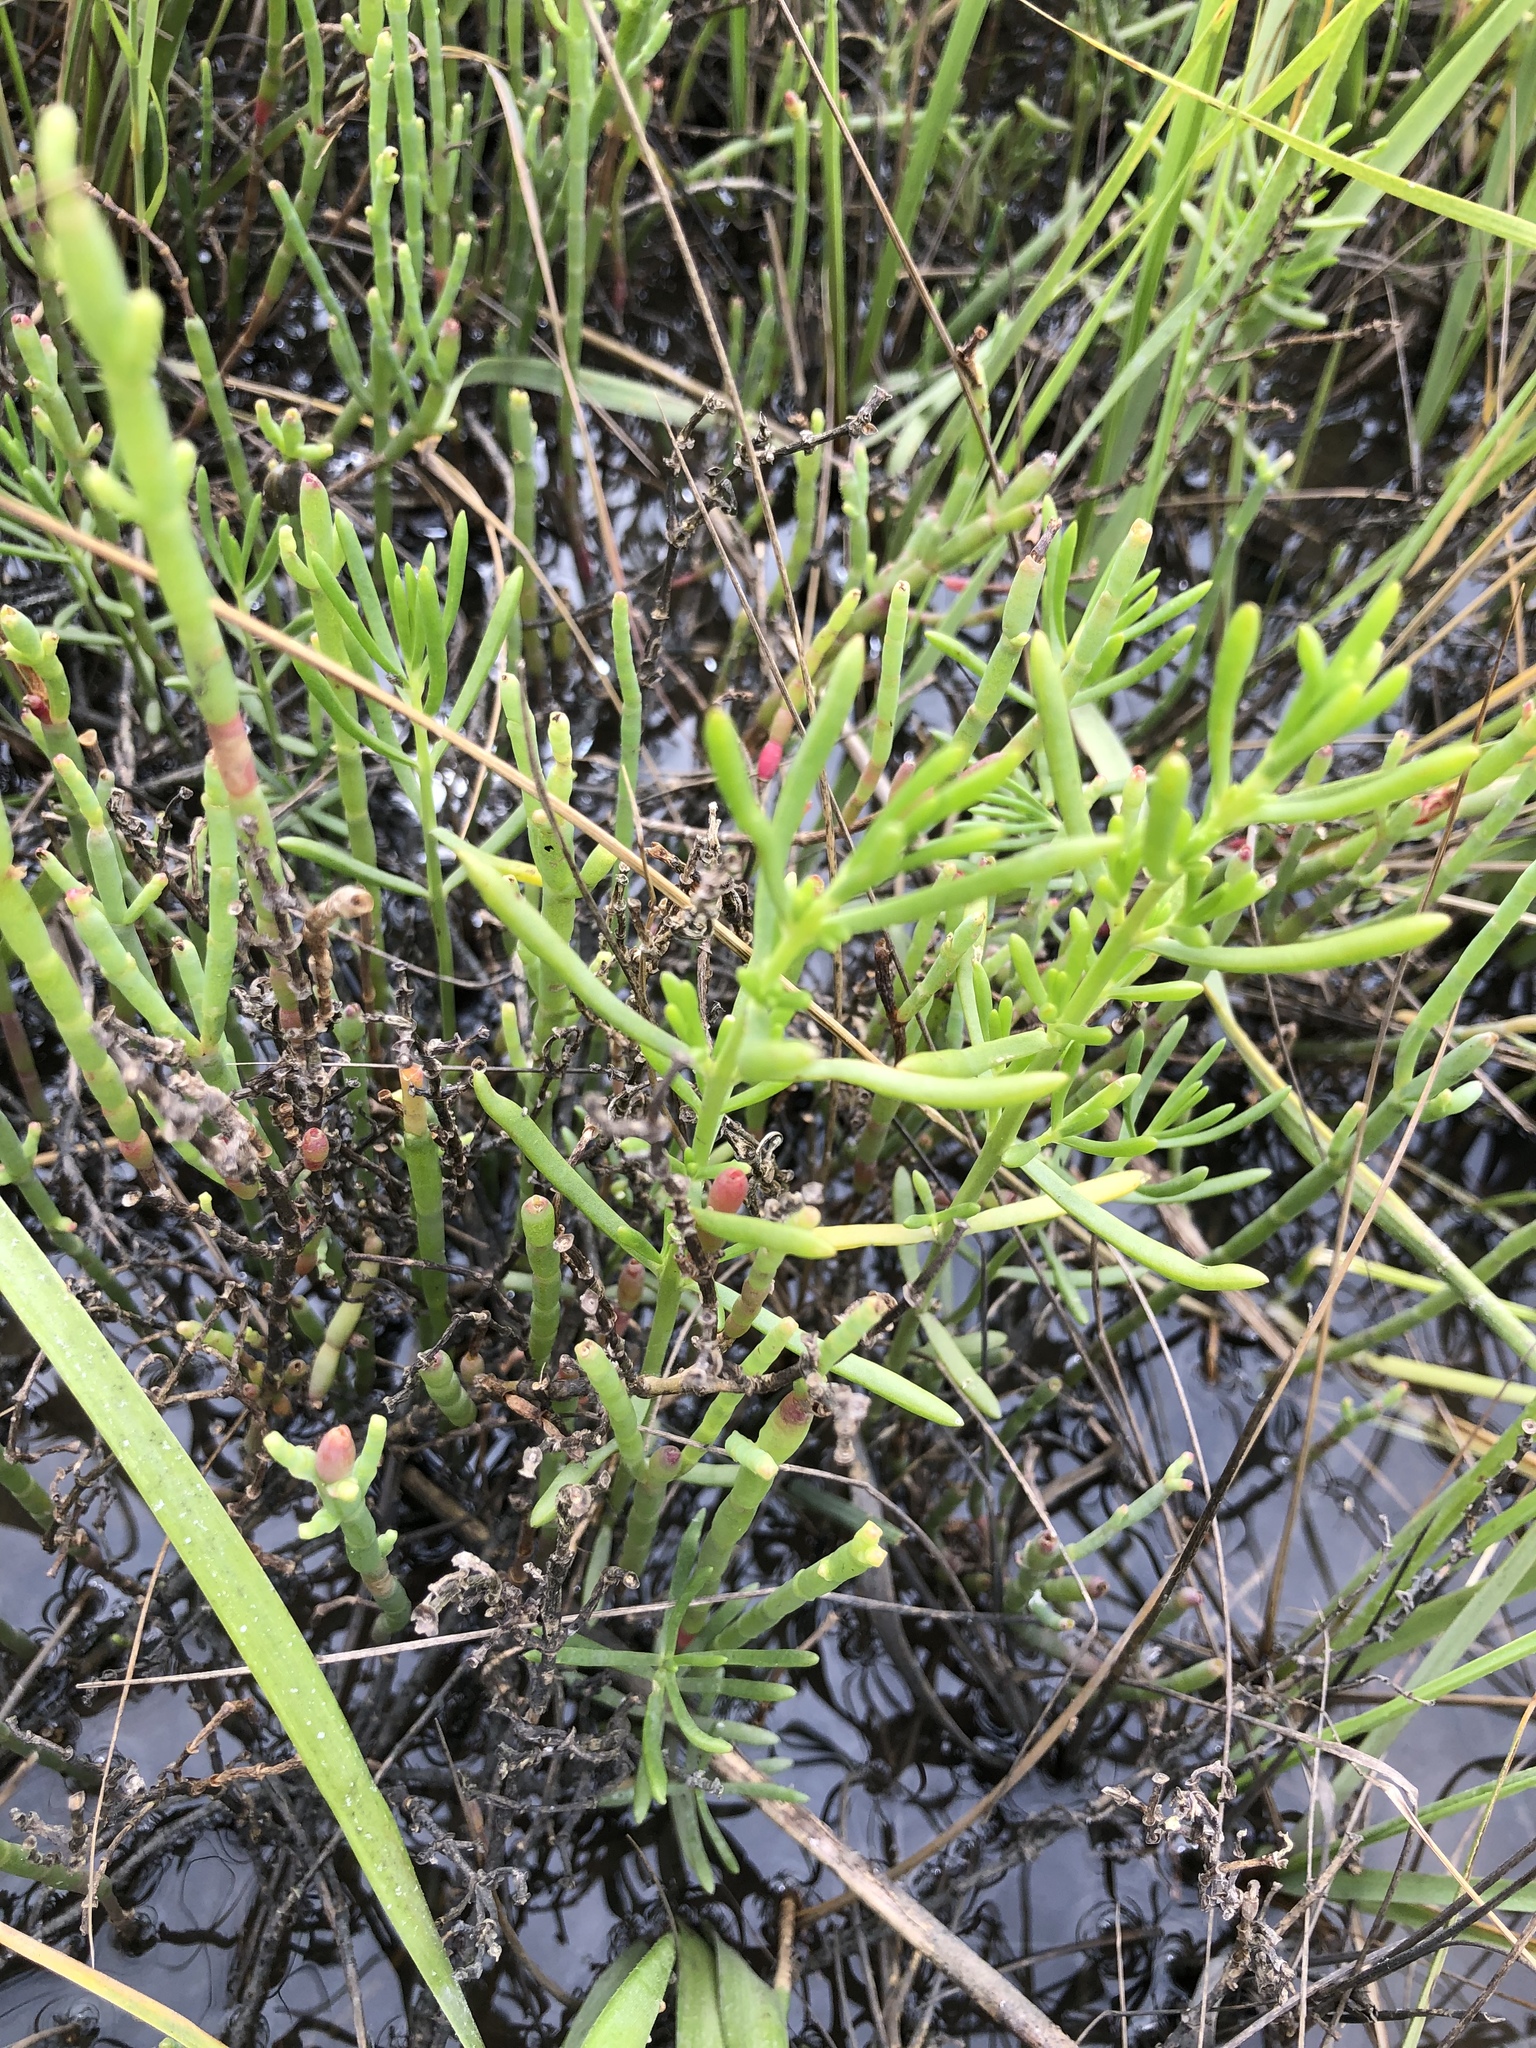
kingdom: Plantae
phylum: Tracheophyta
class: Magnoliopsida
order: Caryophyllales
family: Amaranthaceae
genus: Salicornia
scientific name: Salicornia virginica
